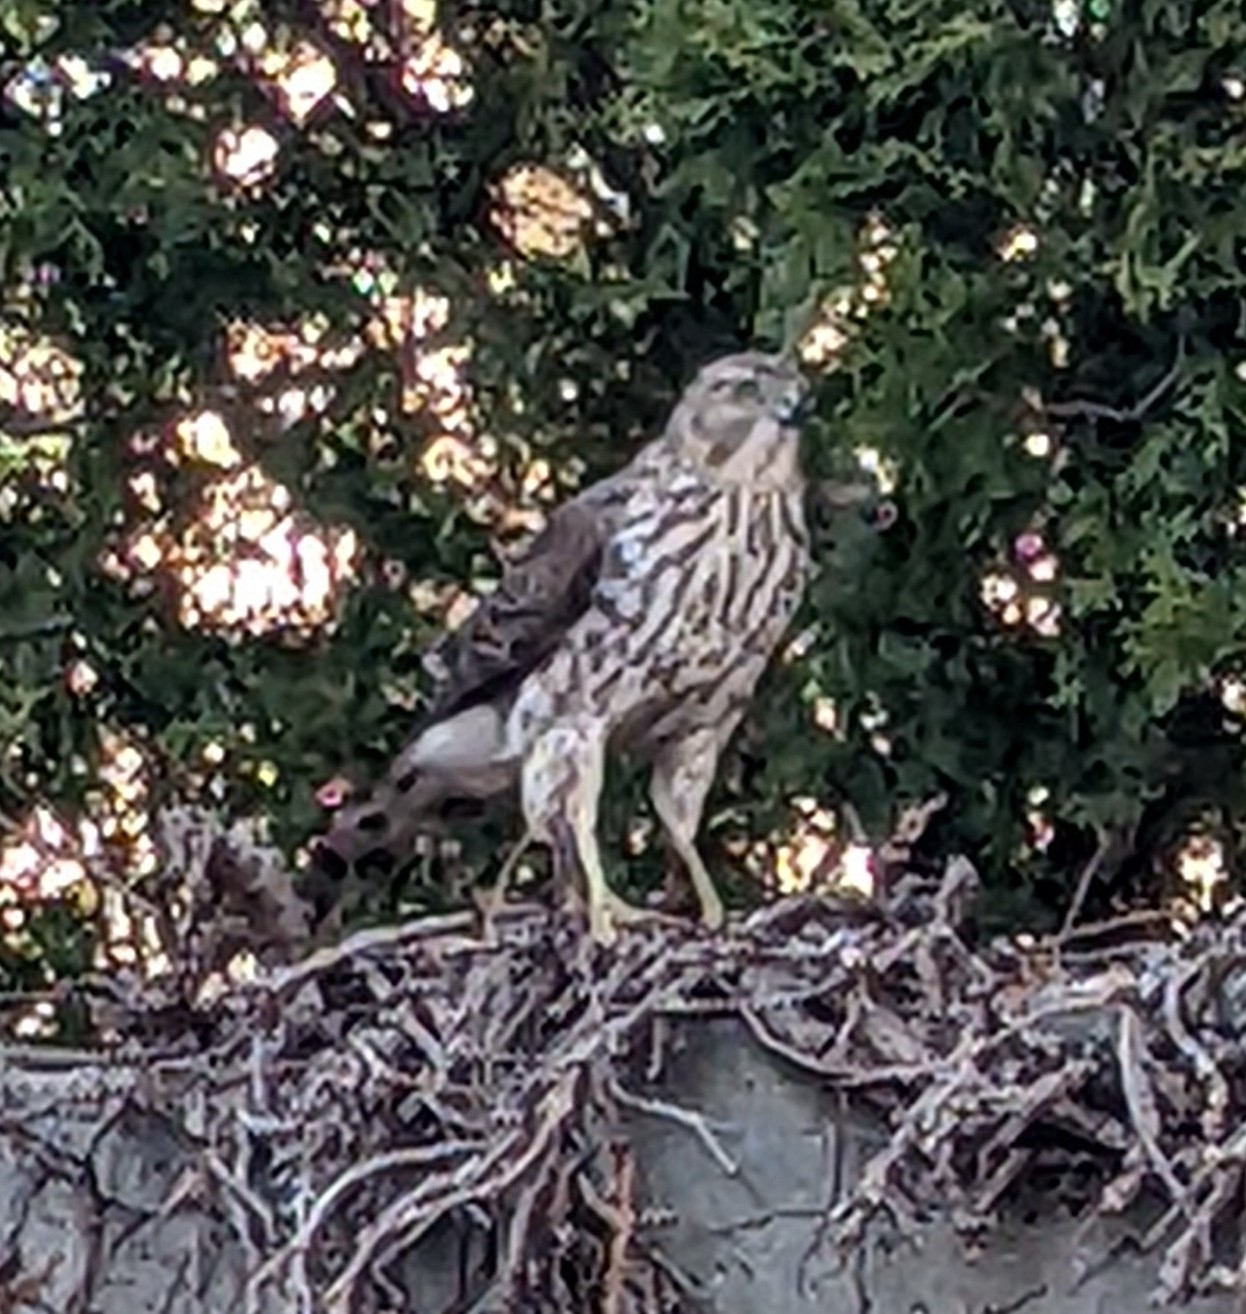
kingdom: Animalia
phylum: Chordata
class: Aves
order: Accipitriformes
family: Accipitridae
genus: Accipiter
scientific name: Accipiter cooperii
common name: Cooper's hawk
